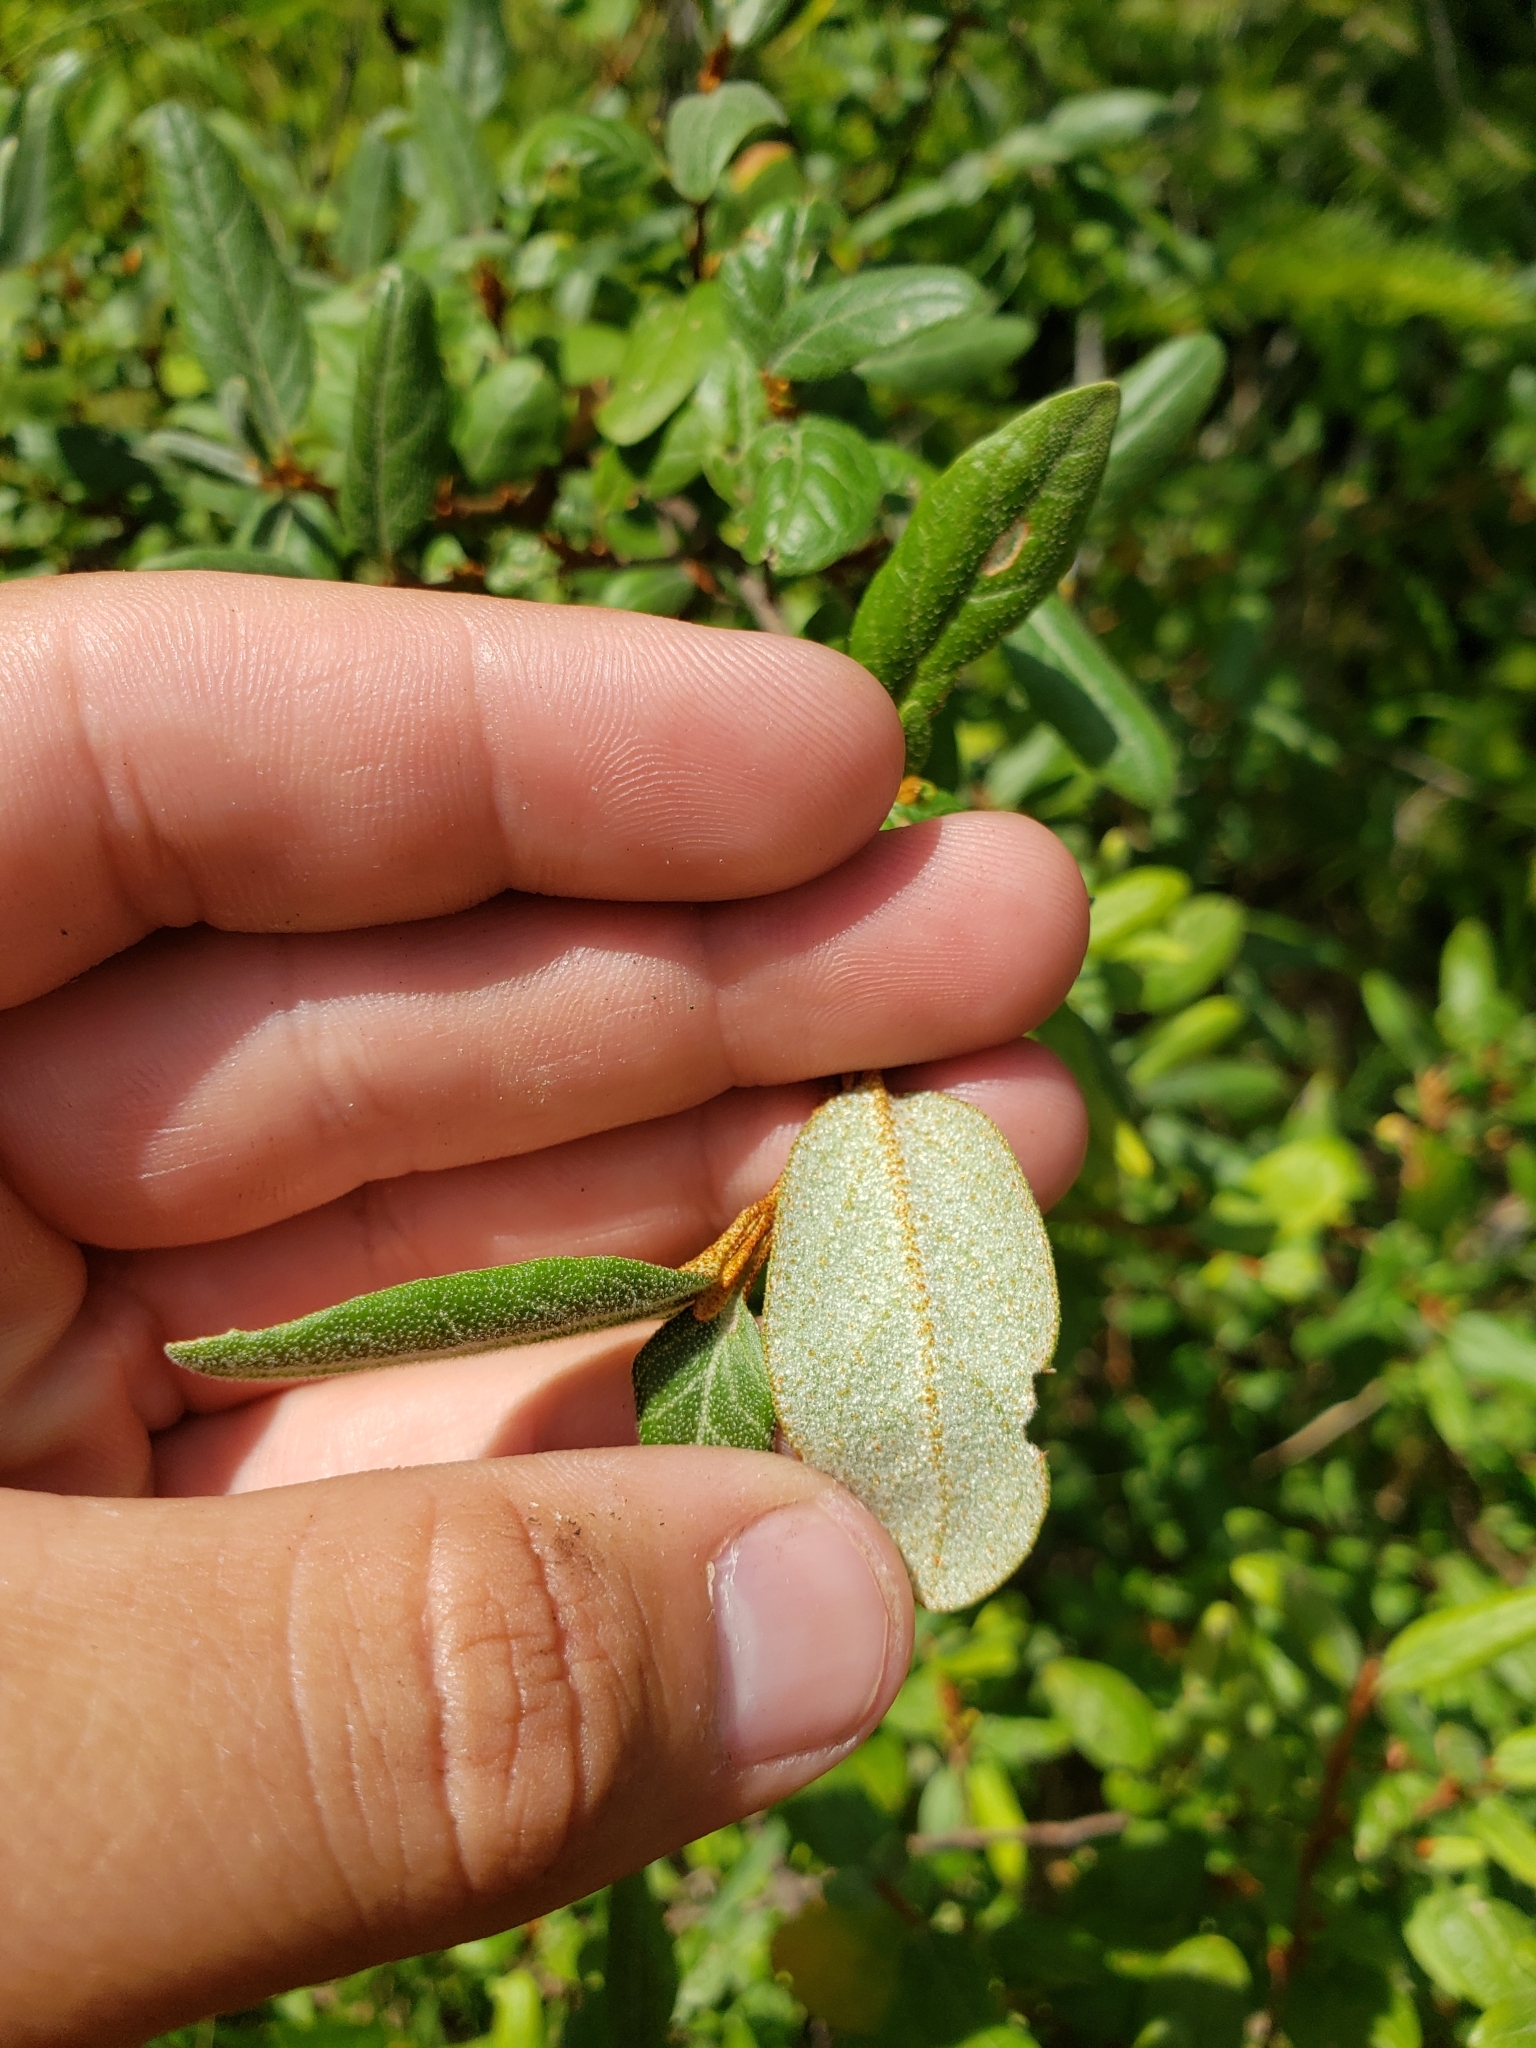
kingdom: Plantae
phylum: Tracheophyta
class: Magnoliopsida
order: Rosales
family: Elaeagnaceae
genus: Shepherdia
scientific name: Shepherdia canadensis
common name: Soapberry
